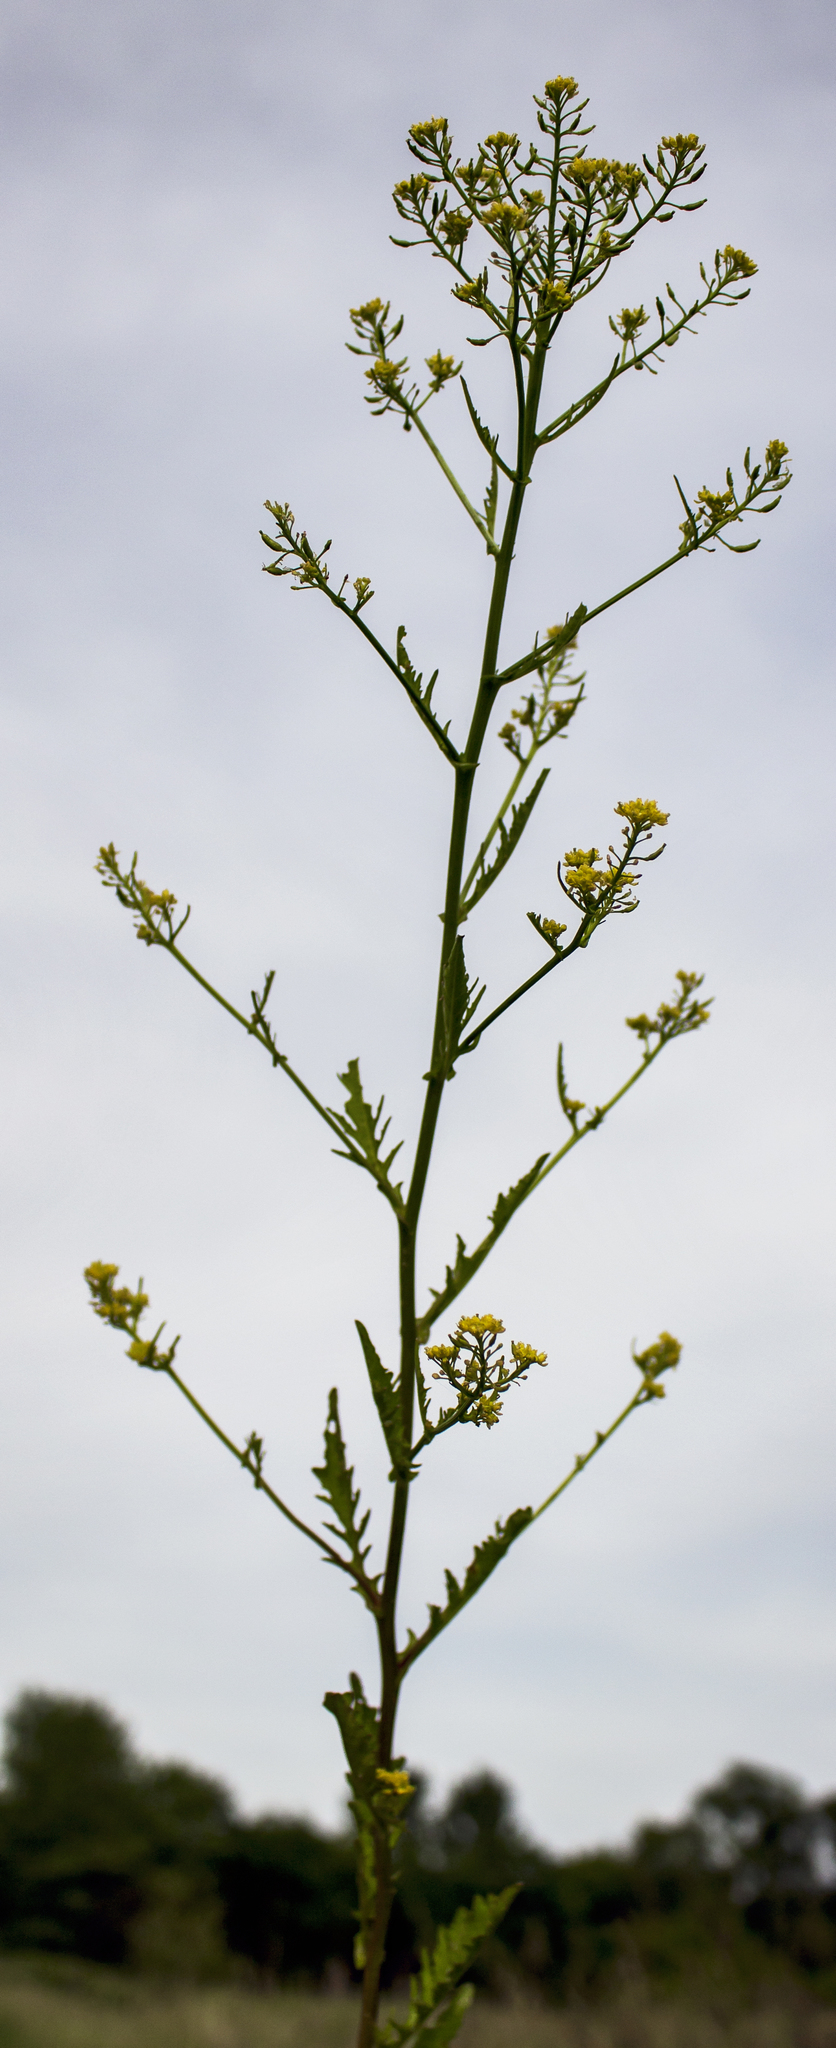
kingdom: Plantae
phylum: Tracheophyta
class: Magnoliopsida
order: Brassicales
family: Brassicaceae
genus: Rorippa
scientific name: Rorippa palustris
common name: Marsh yellow-cress
